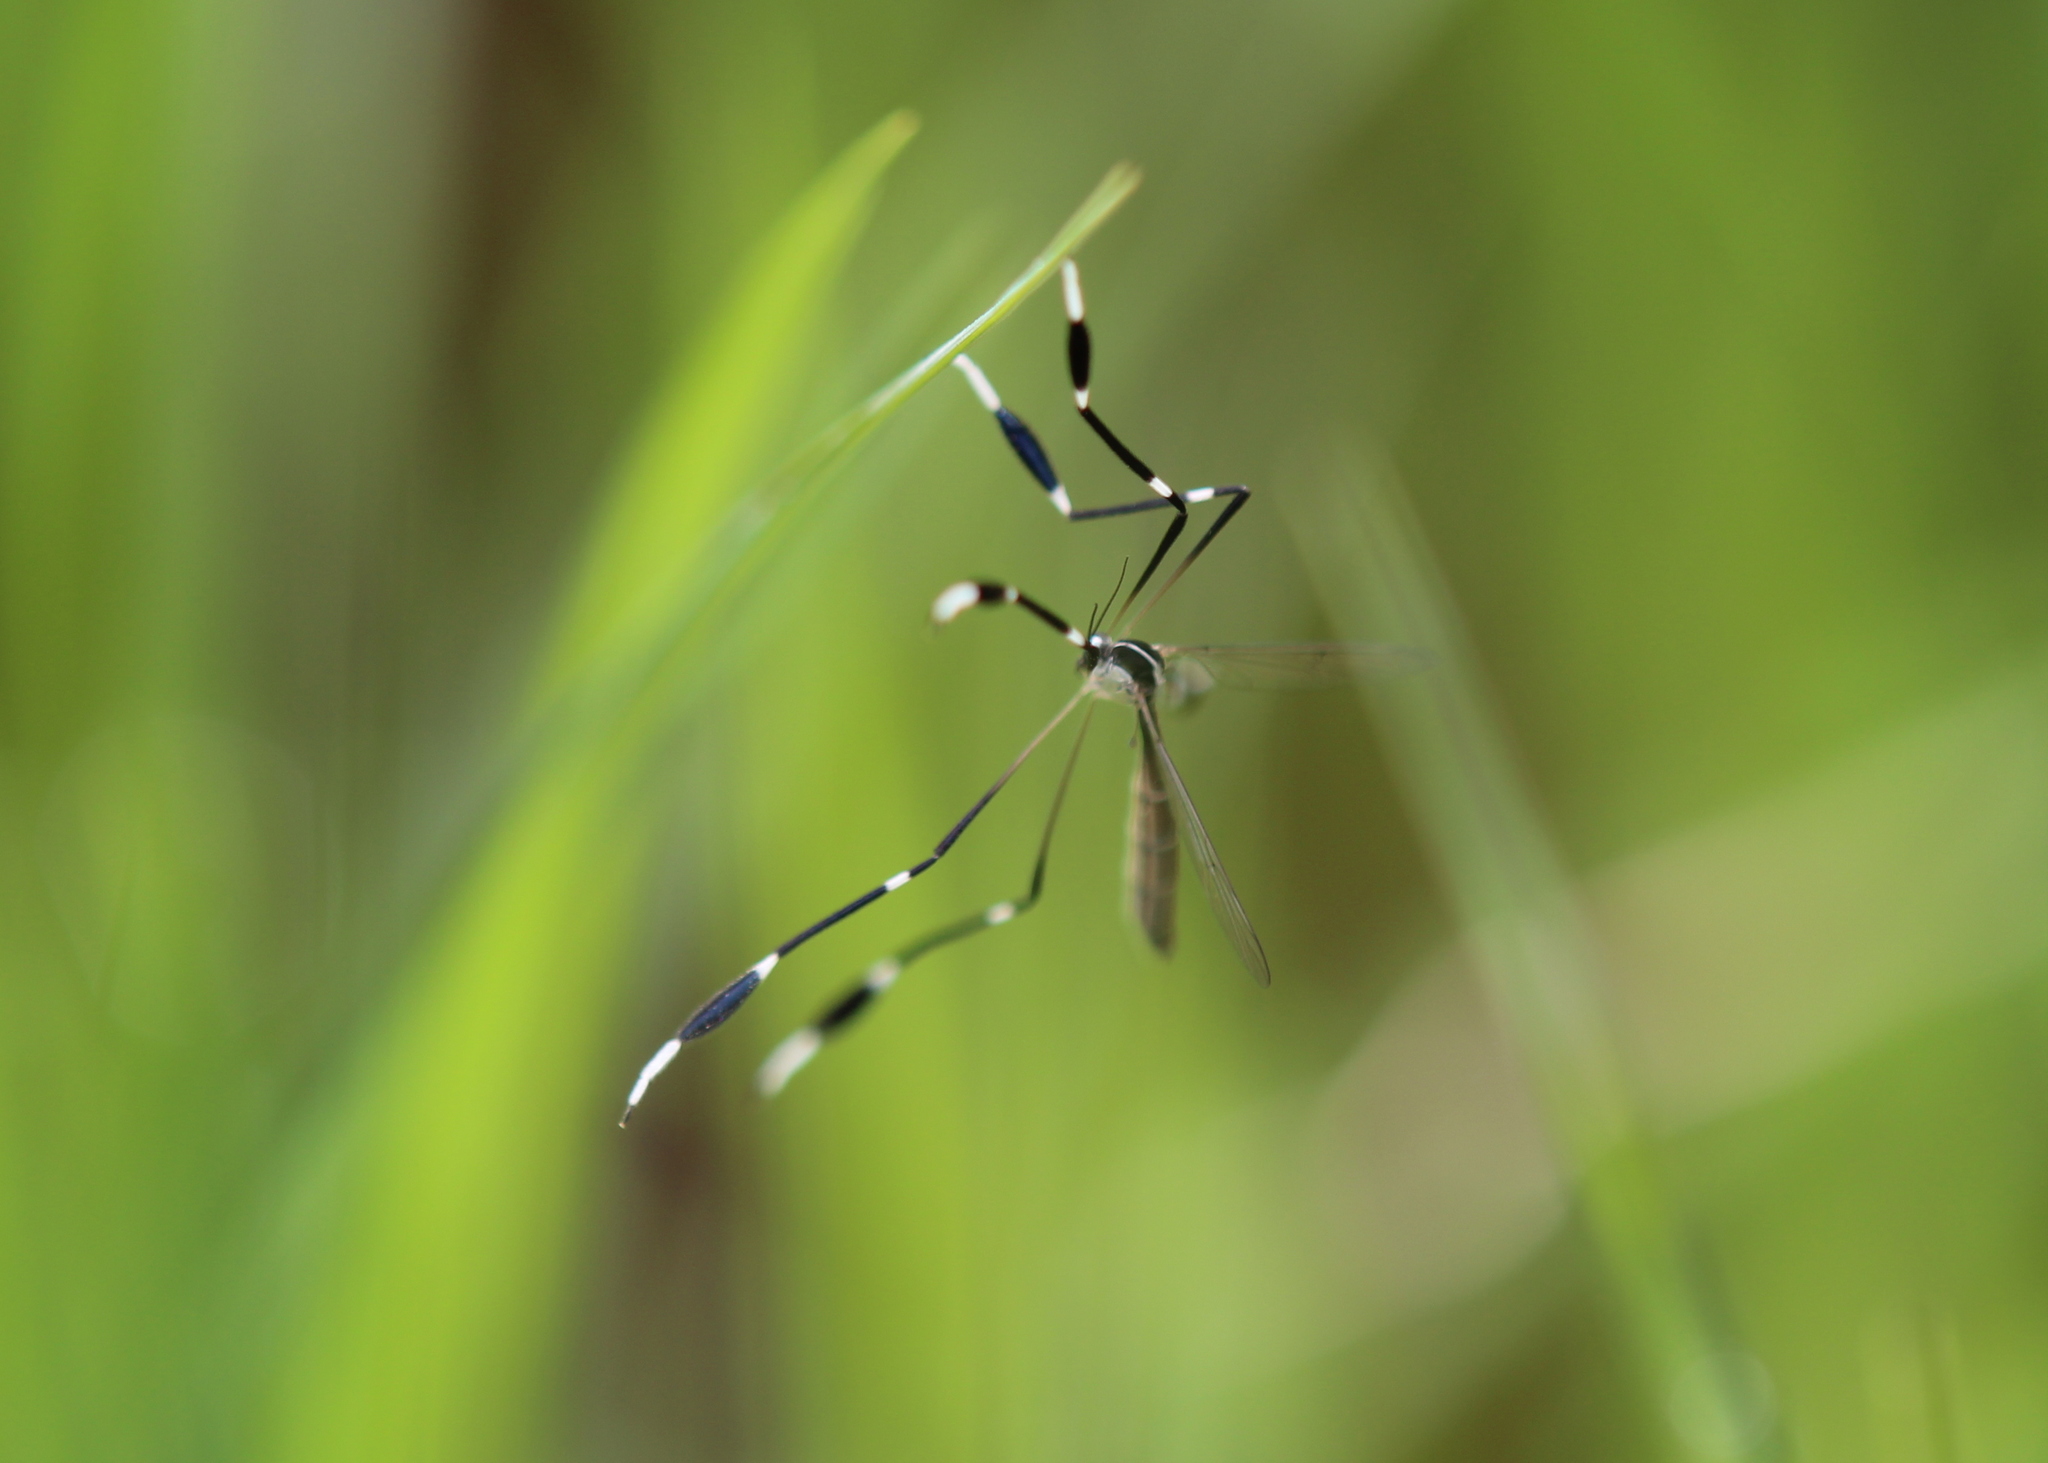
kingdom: Animalia
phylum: Arthropoda
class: Insecta
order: Diptera
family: Ptychopteridae
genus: Bittacomorpha
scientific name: Bittacomorpha clavipes
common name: Eastern phantom crane fly
